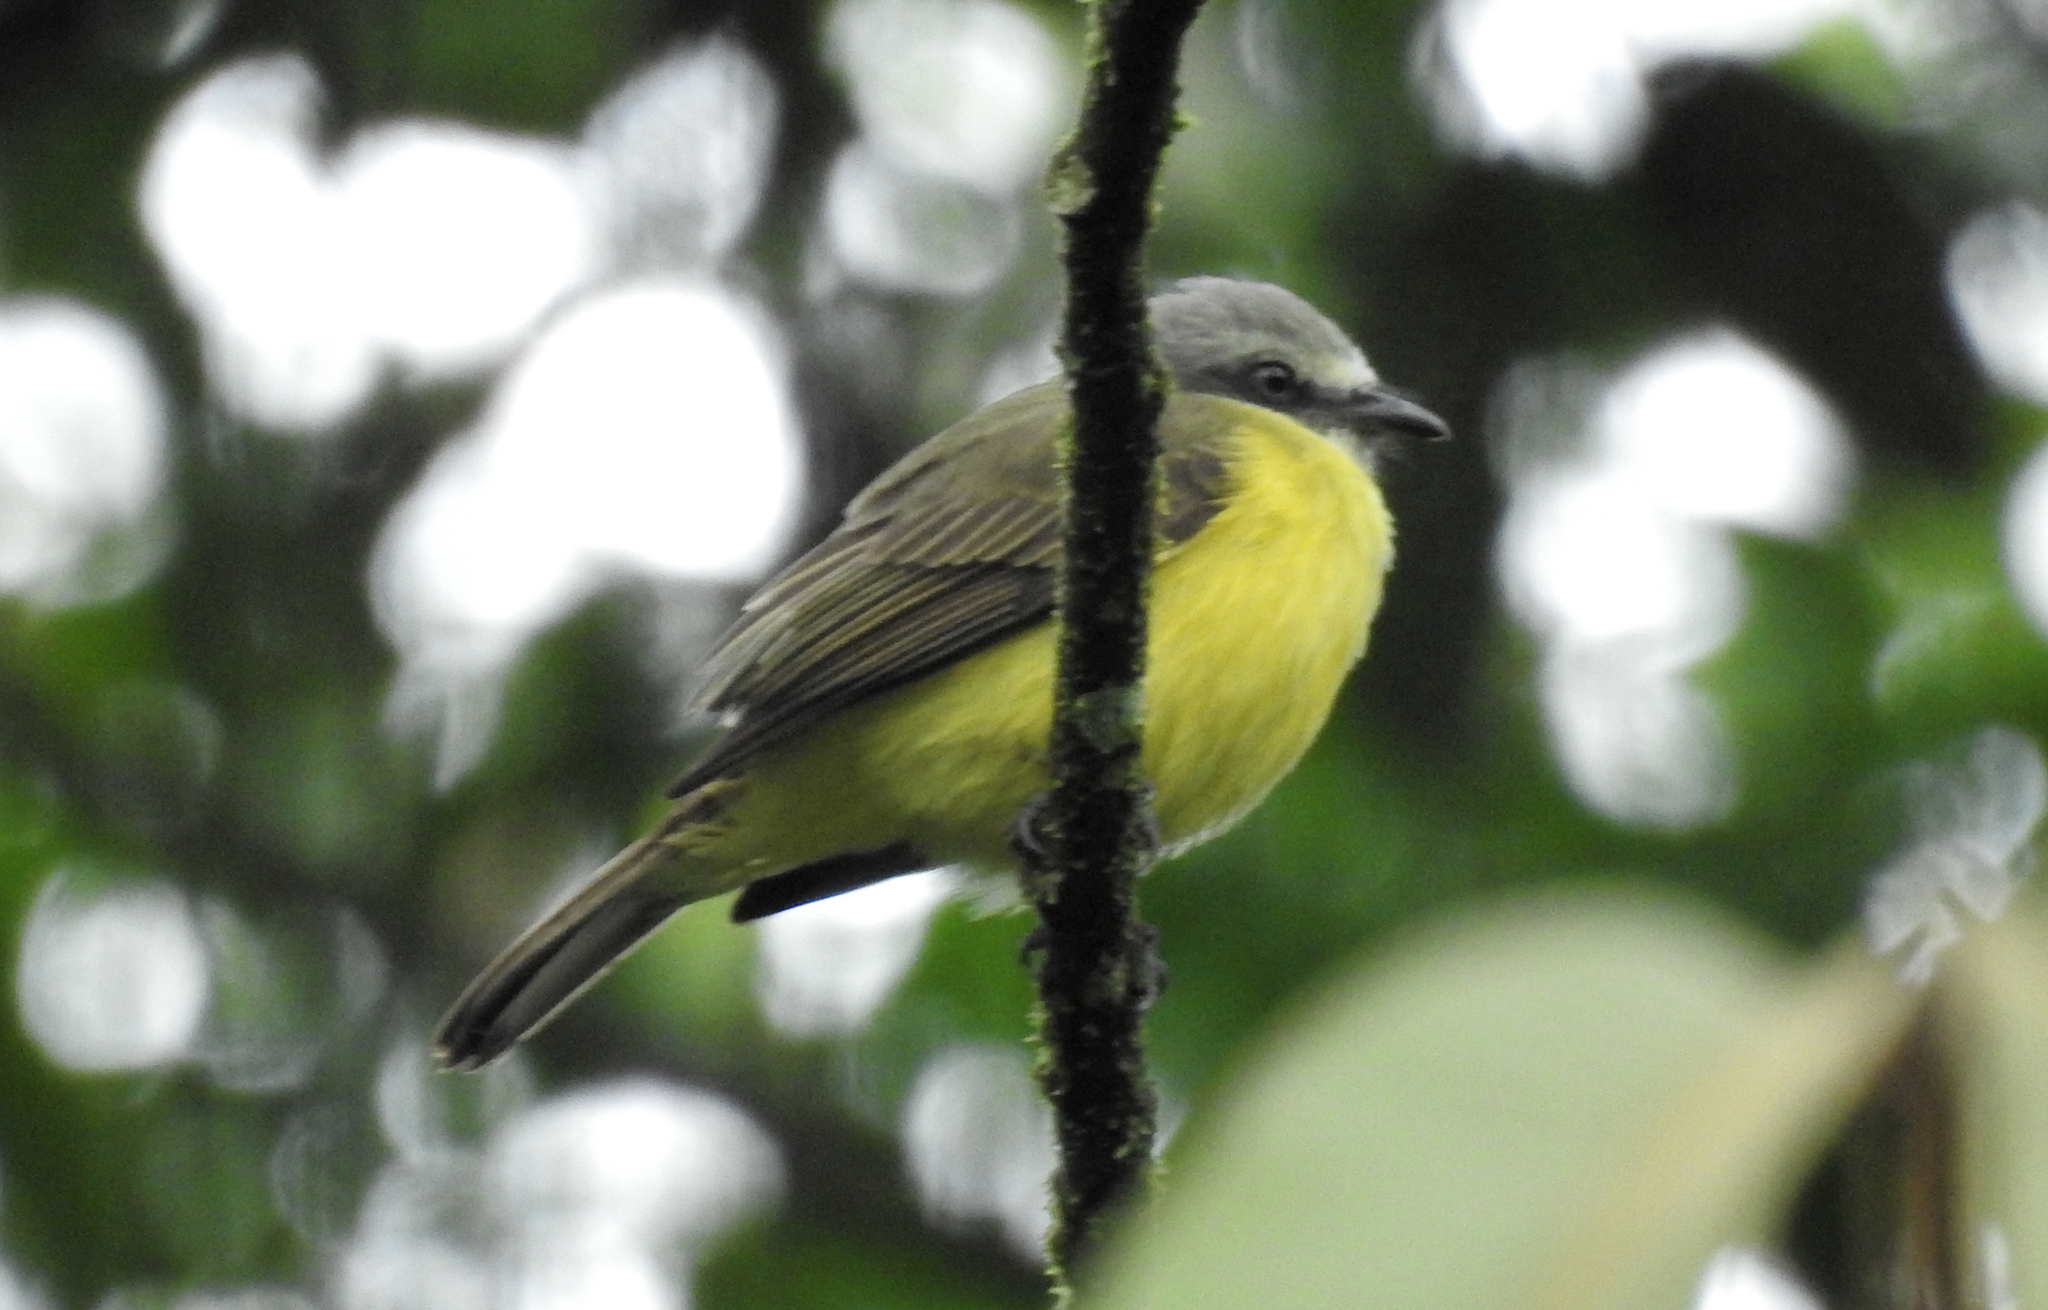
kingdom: Animalia
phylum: Chordata
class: Aves
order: Passeriformes
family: Tyrannidae
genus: Myiozetetes
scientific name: Myiozetetes granadensis
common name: Gray-capped flycatcher
